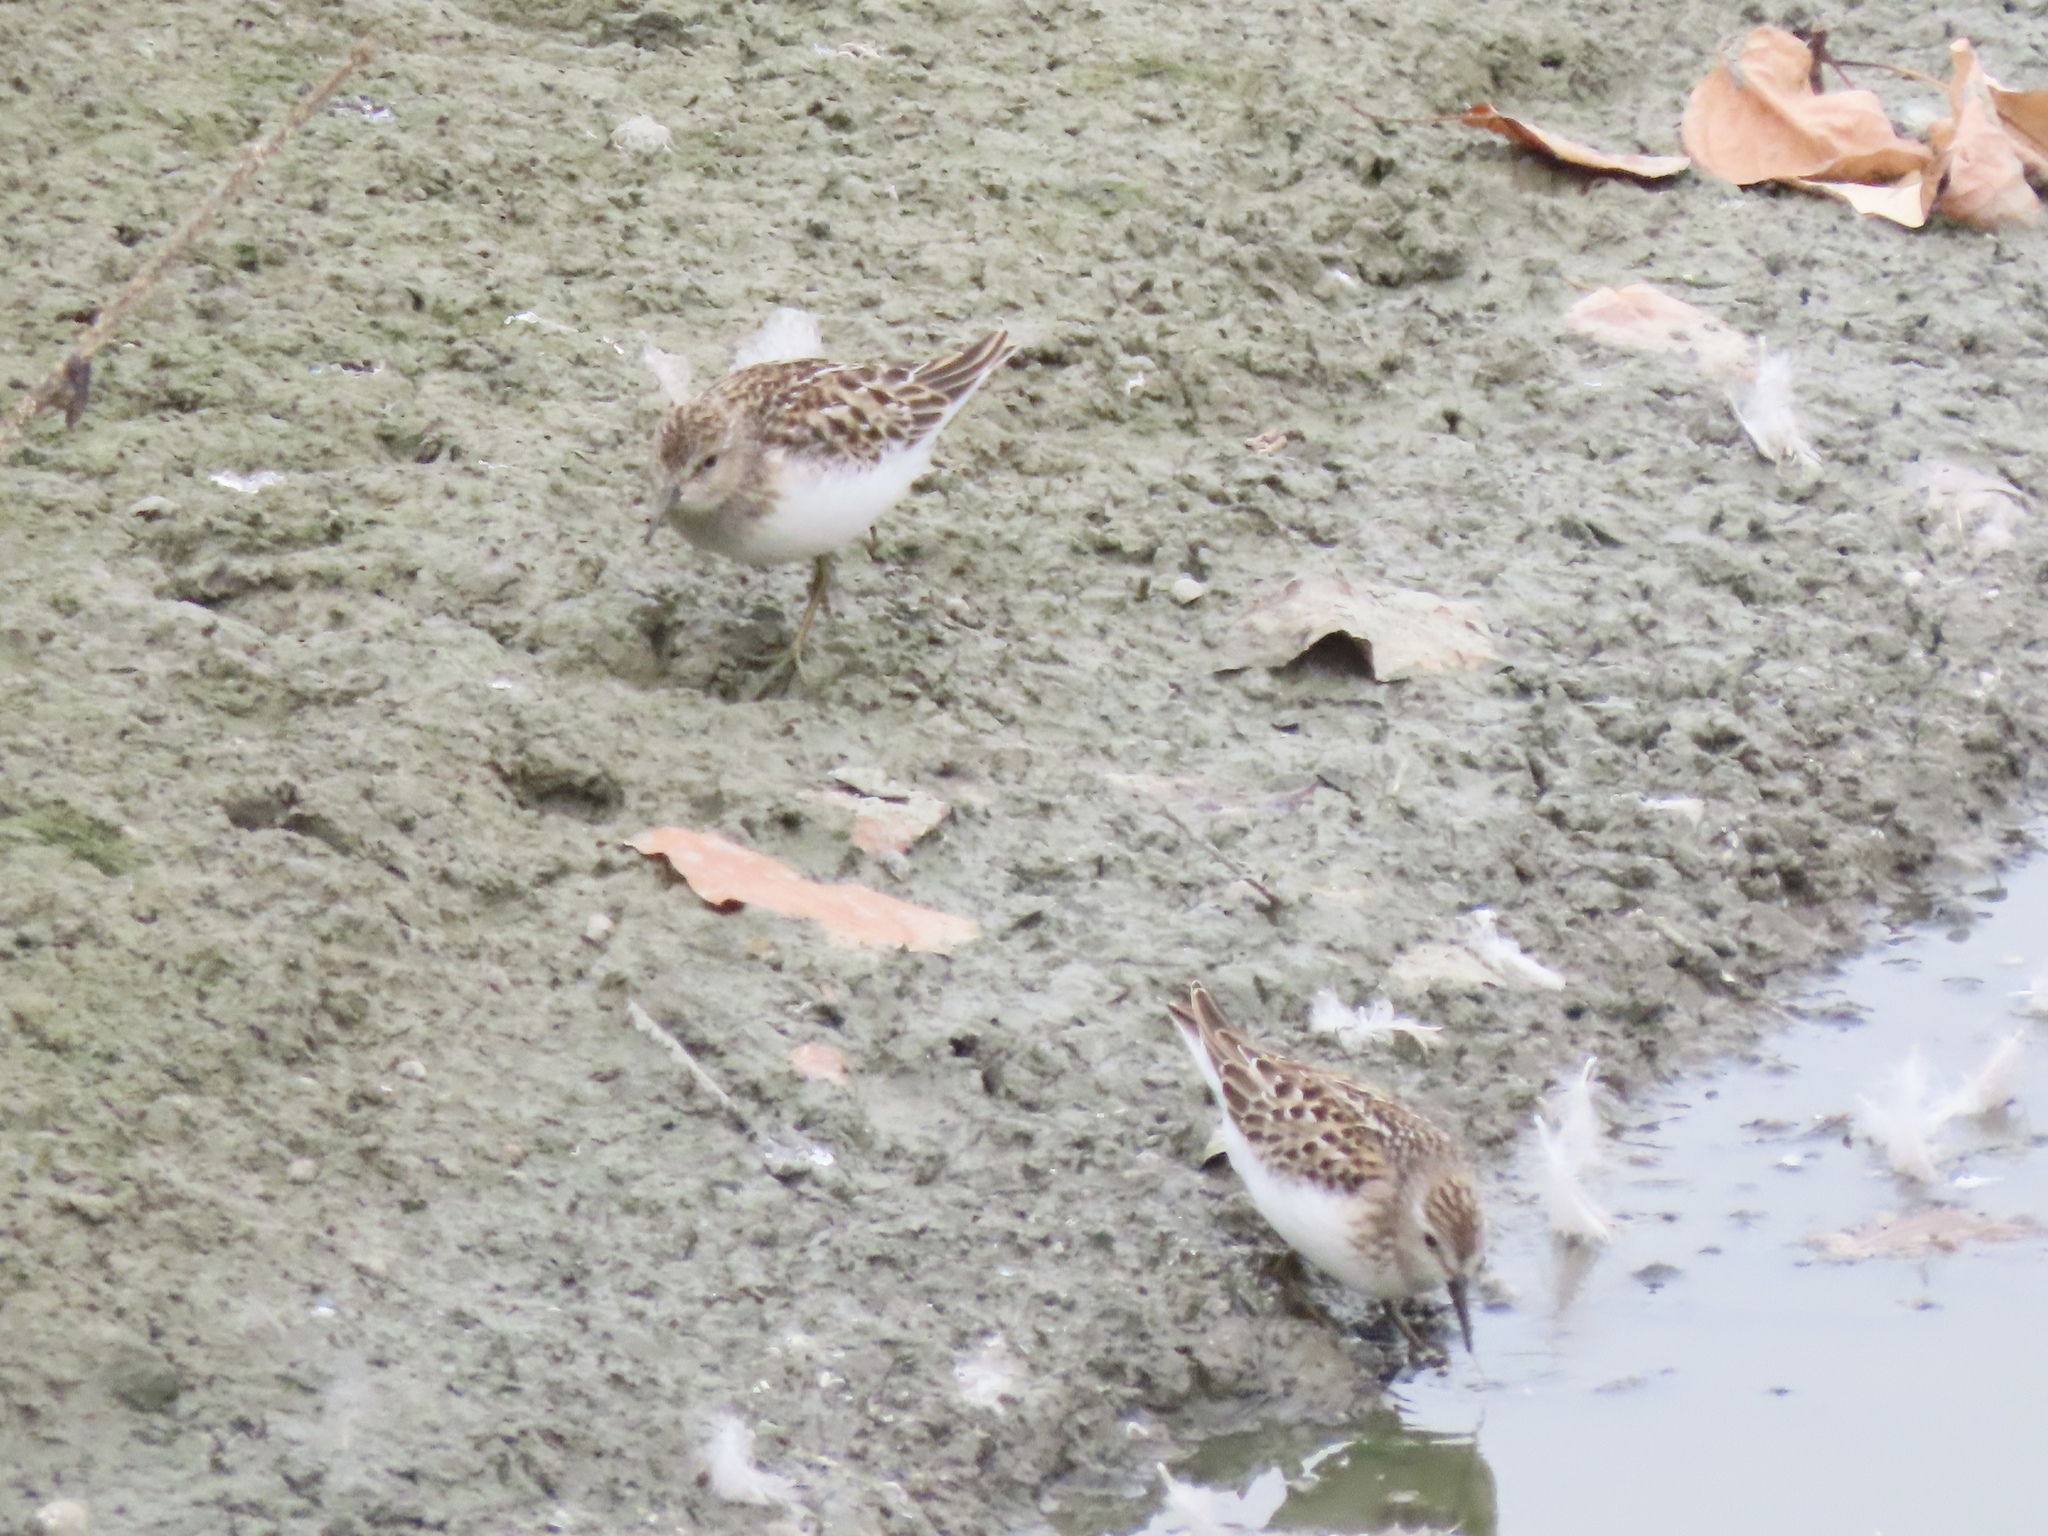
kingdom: Animalia
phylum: Chordata
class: Aves
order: Charadriiformes
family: Scolopacidae
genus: Calidris
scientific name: Calidris minutilla
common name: Least sandpiper
